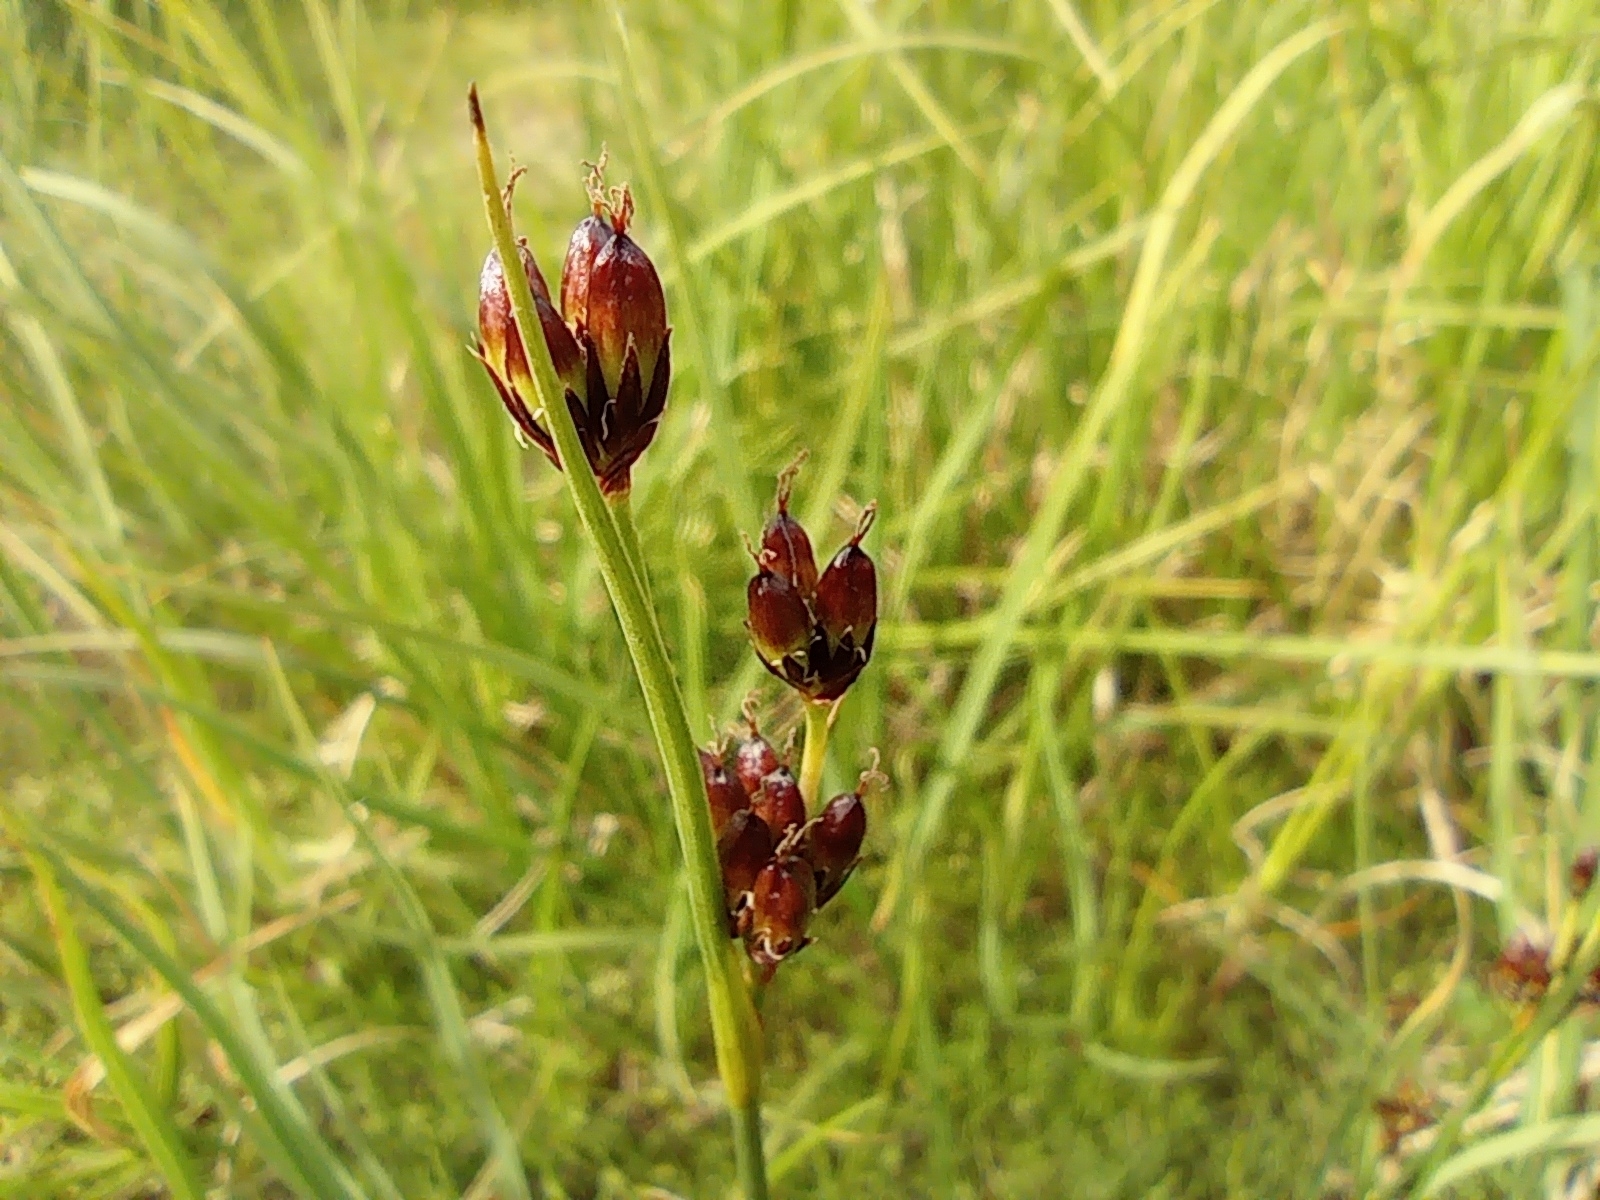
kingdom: Plantae
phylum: Tracheophyta
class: Liliopsida
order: Poales
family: Juncaceae
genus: Juncus
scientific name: Juncus castaneus
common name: Chestnut rush
